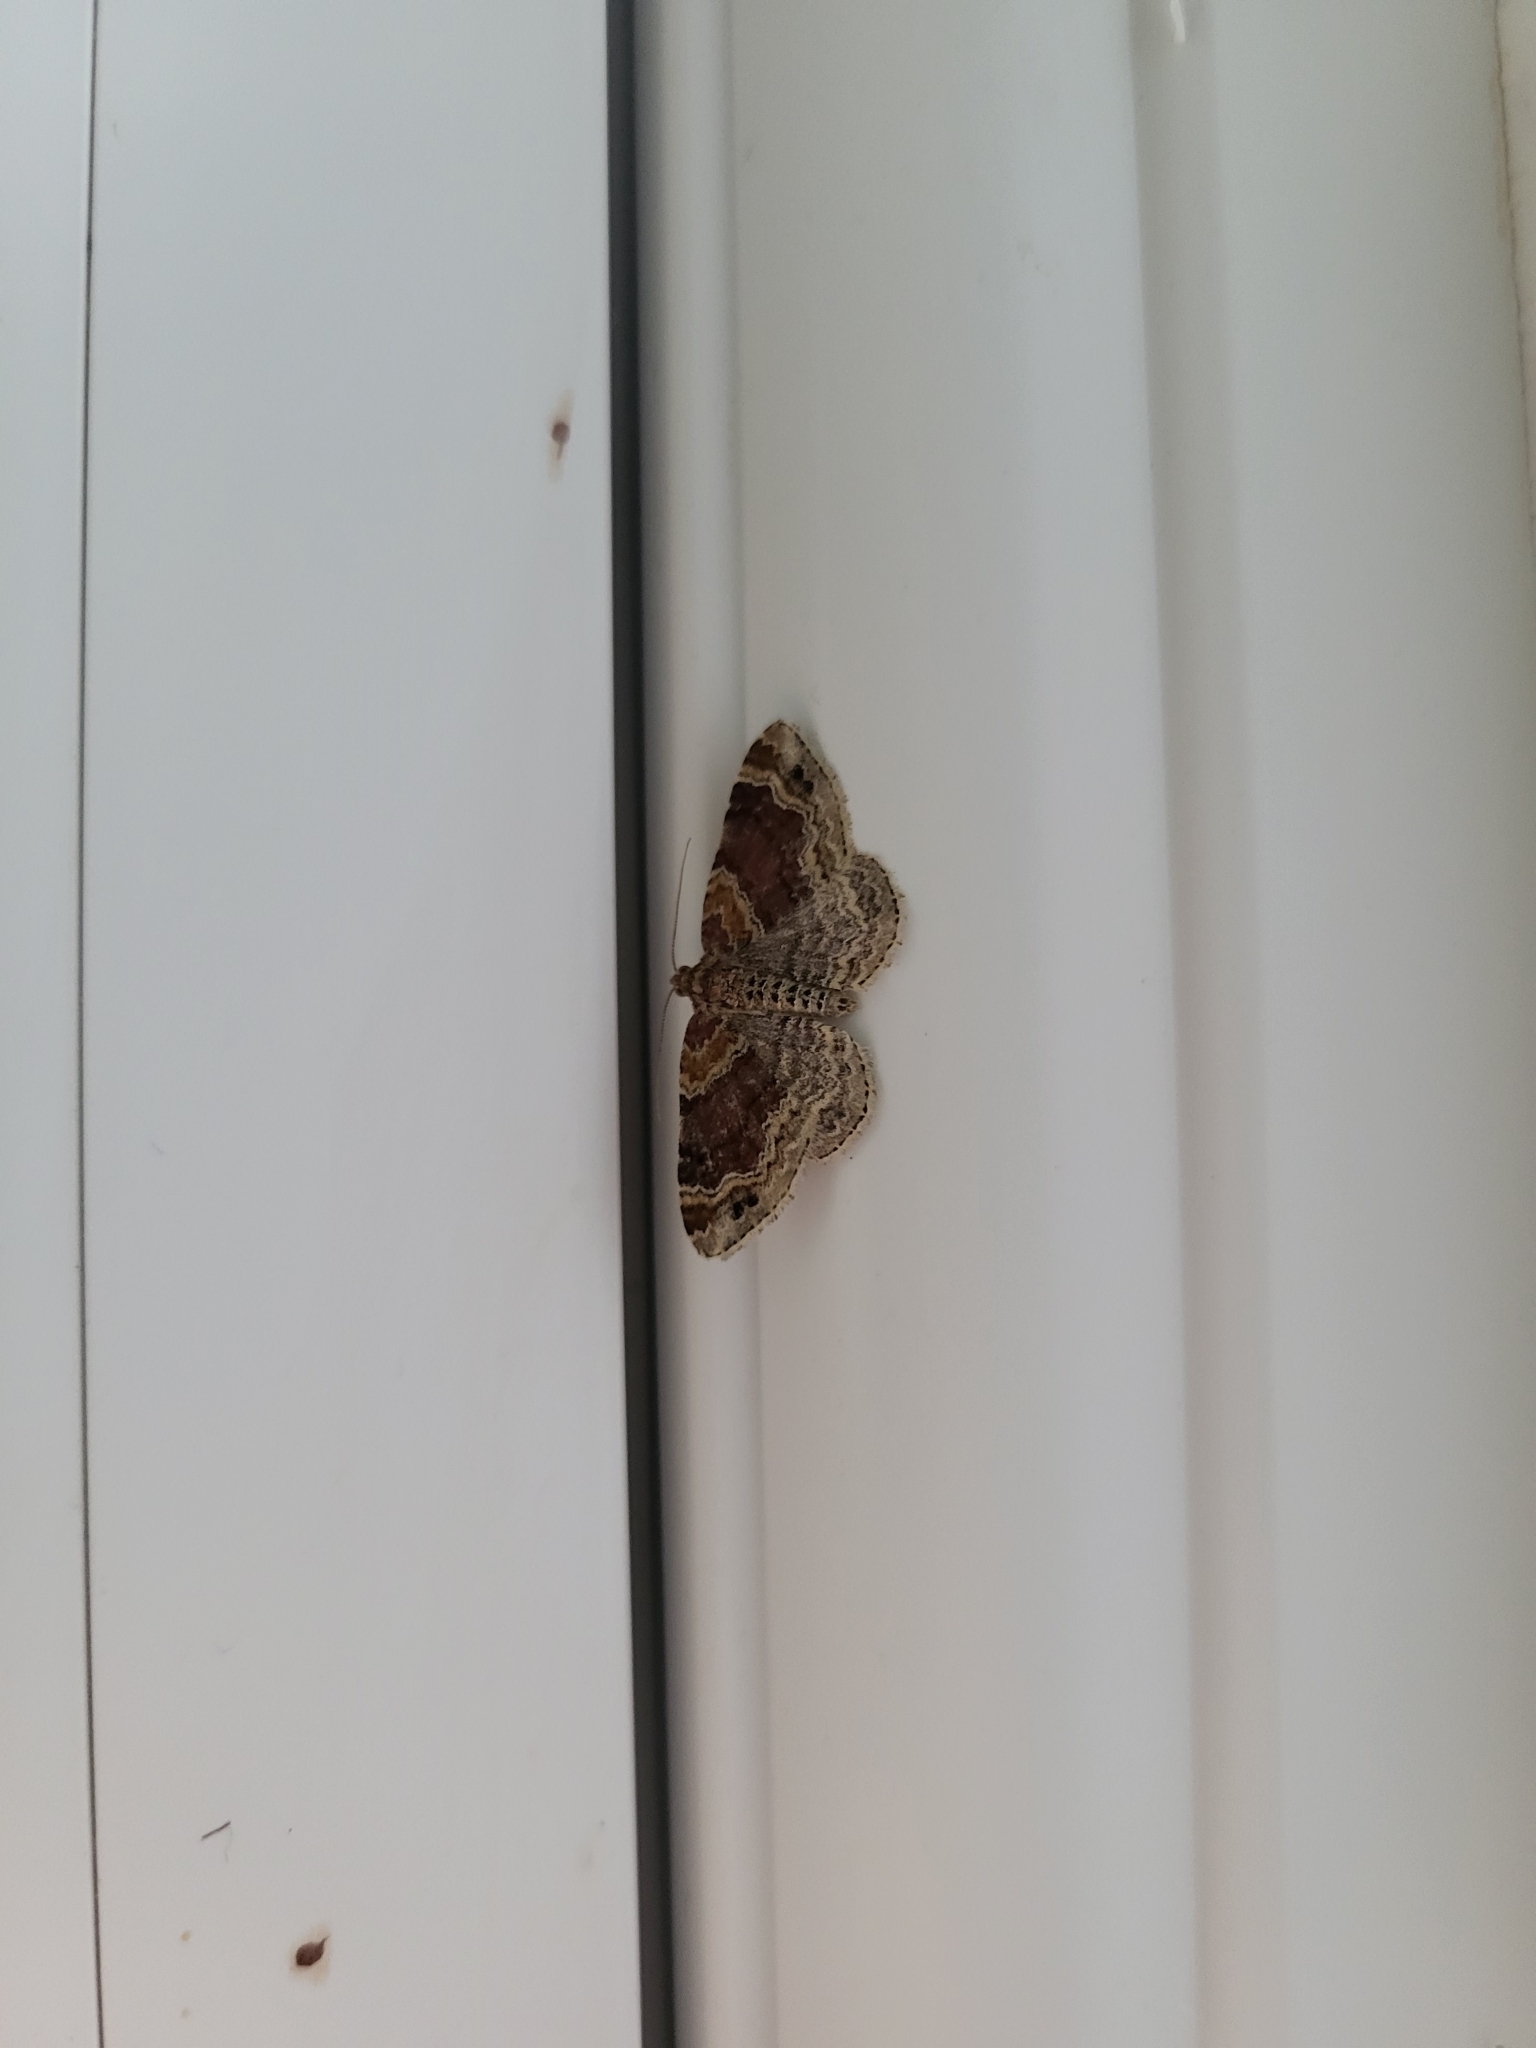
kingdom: Animalia
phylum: Arthropoda
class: Insecta
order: Lepidoptera
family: Geometridae
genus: Xanthorhoe
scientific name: Xanthorhoe spadicearia
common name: Red twin-spot carpet
